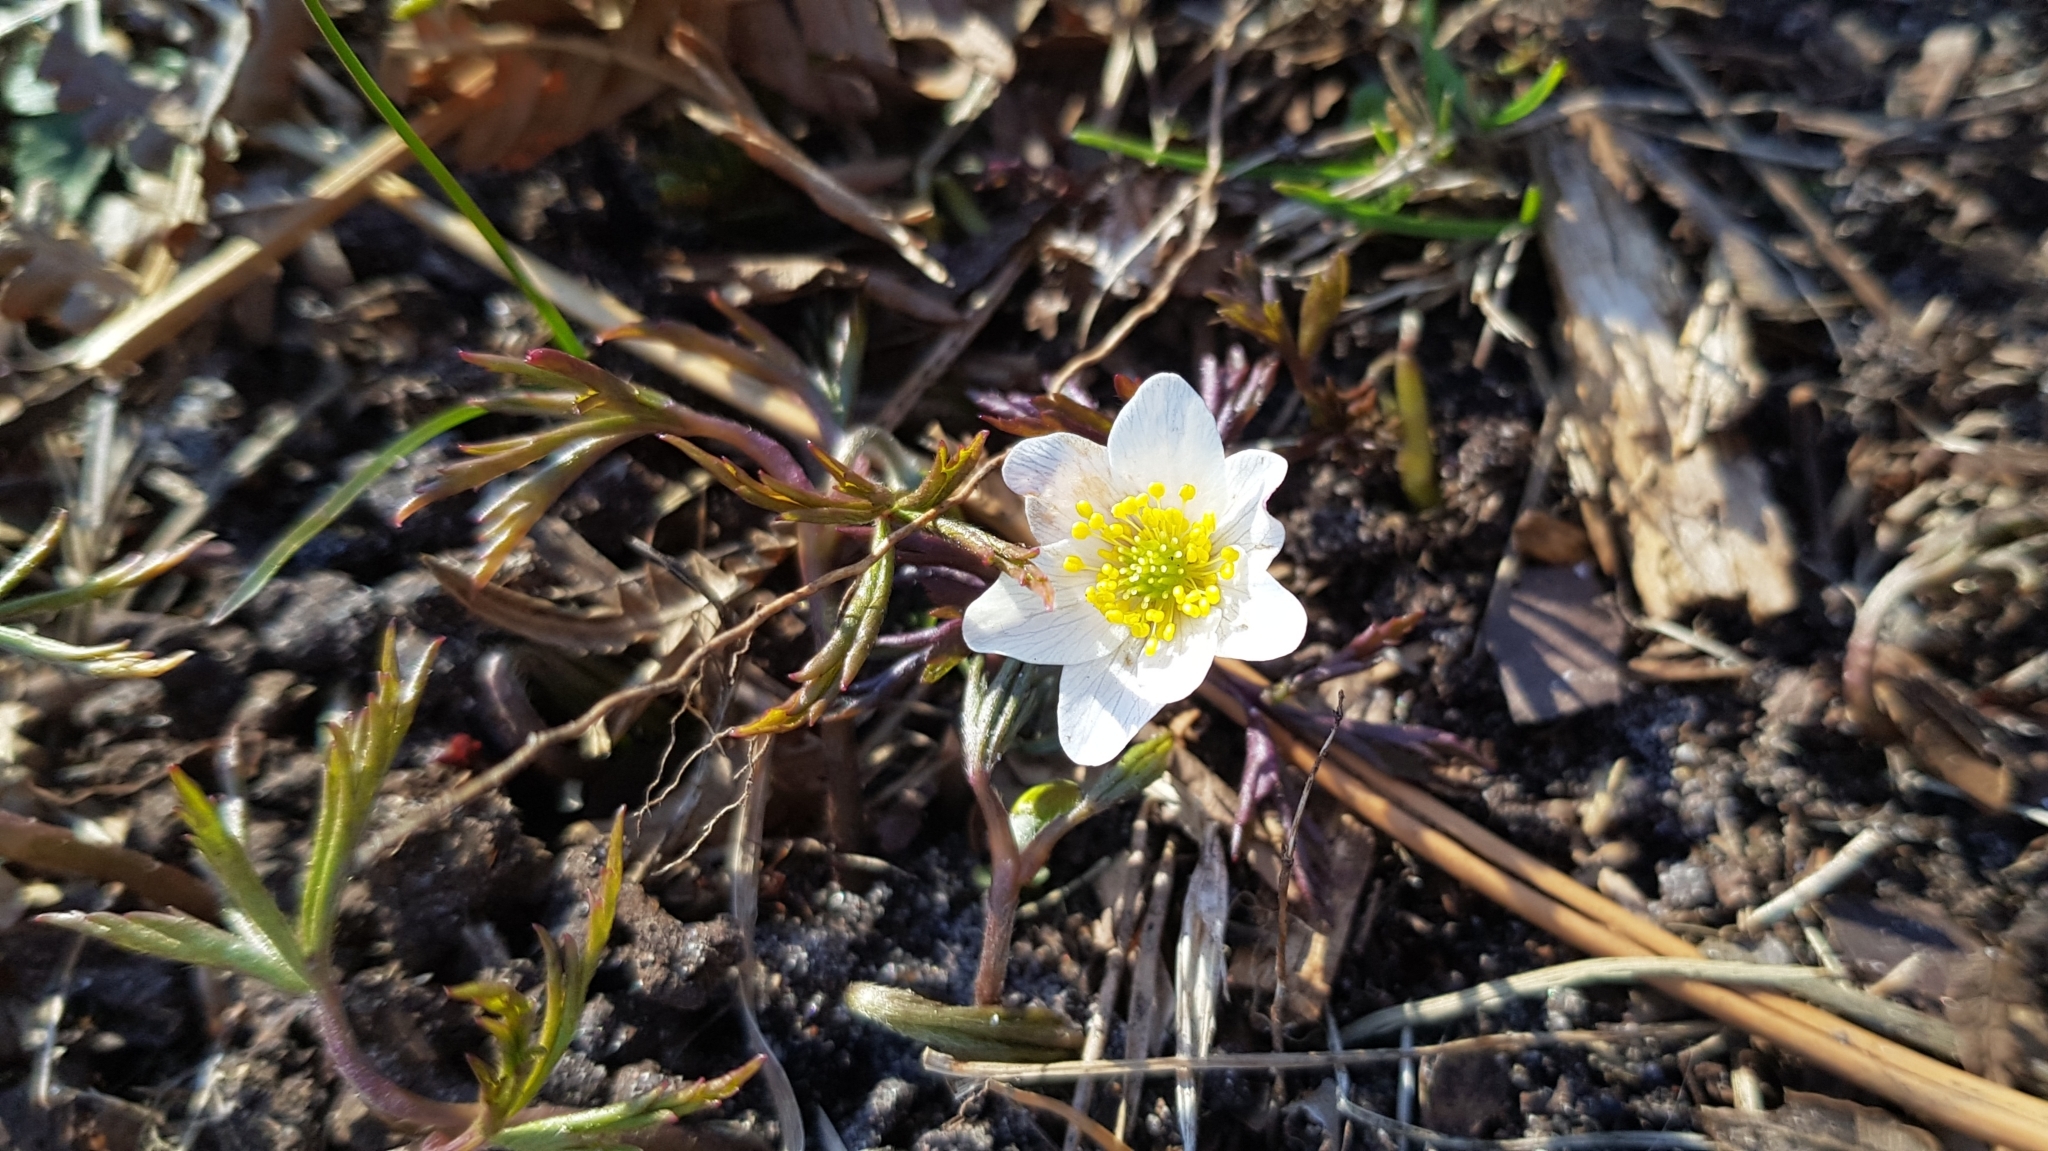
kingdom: Plantae
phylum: Tracheophyta
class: Magnoliopsida
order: Ranunculales
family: Ranunculaceae
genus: Anemone
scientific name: Anemone nemorosa
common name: Wood anemone
